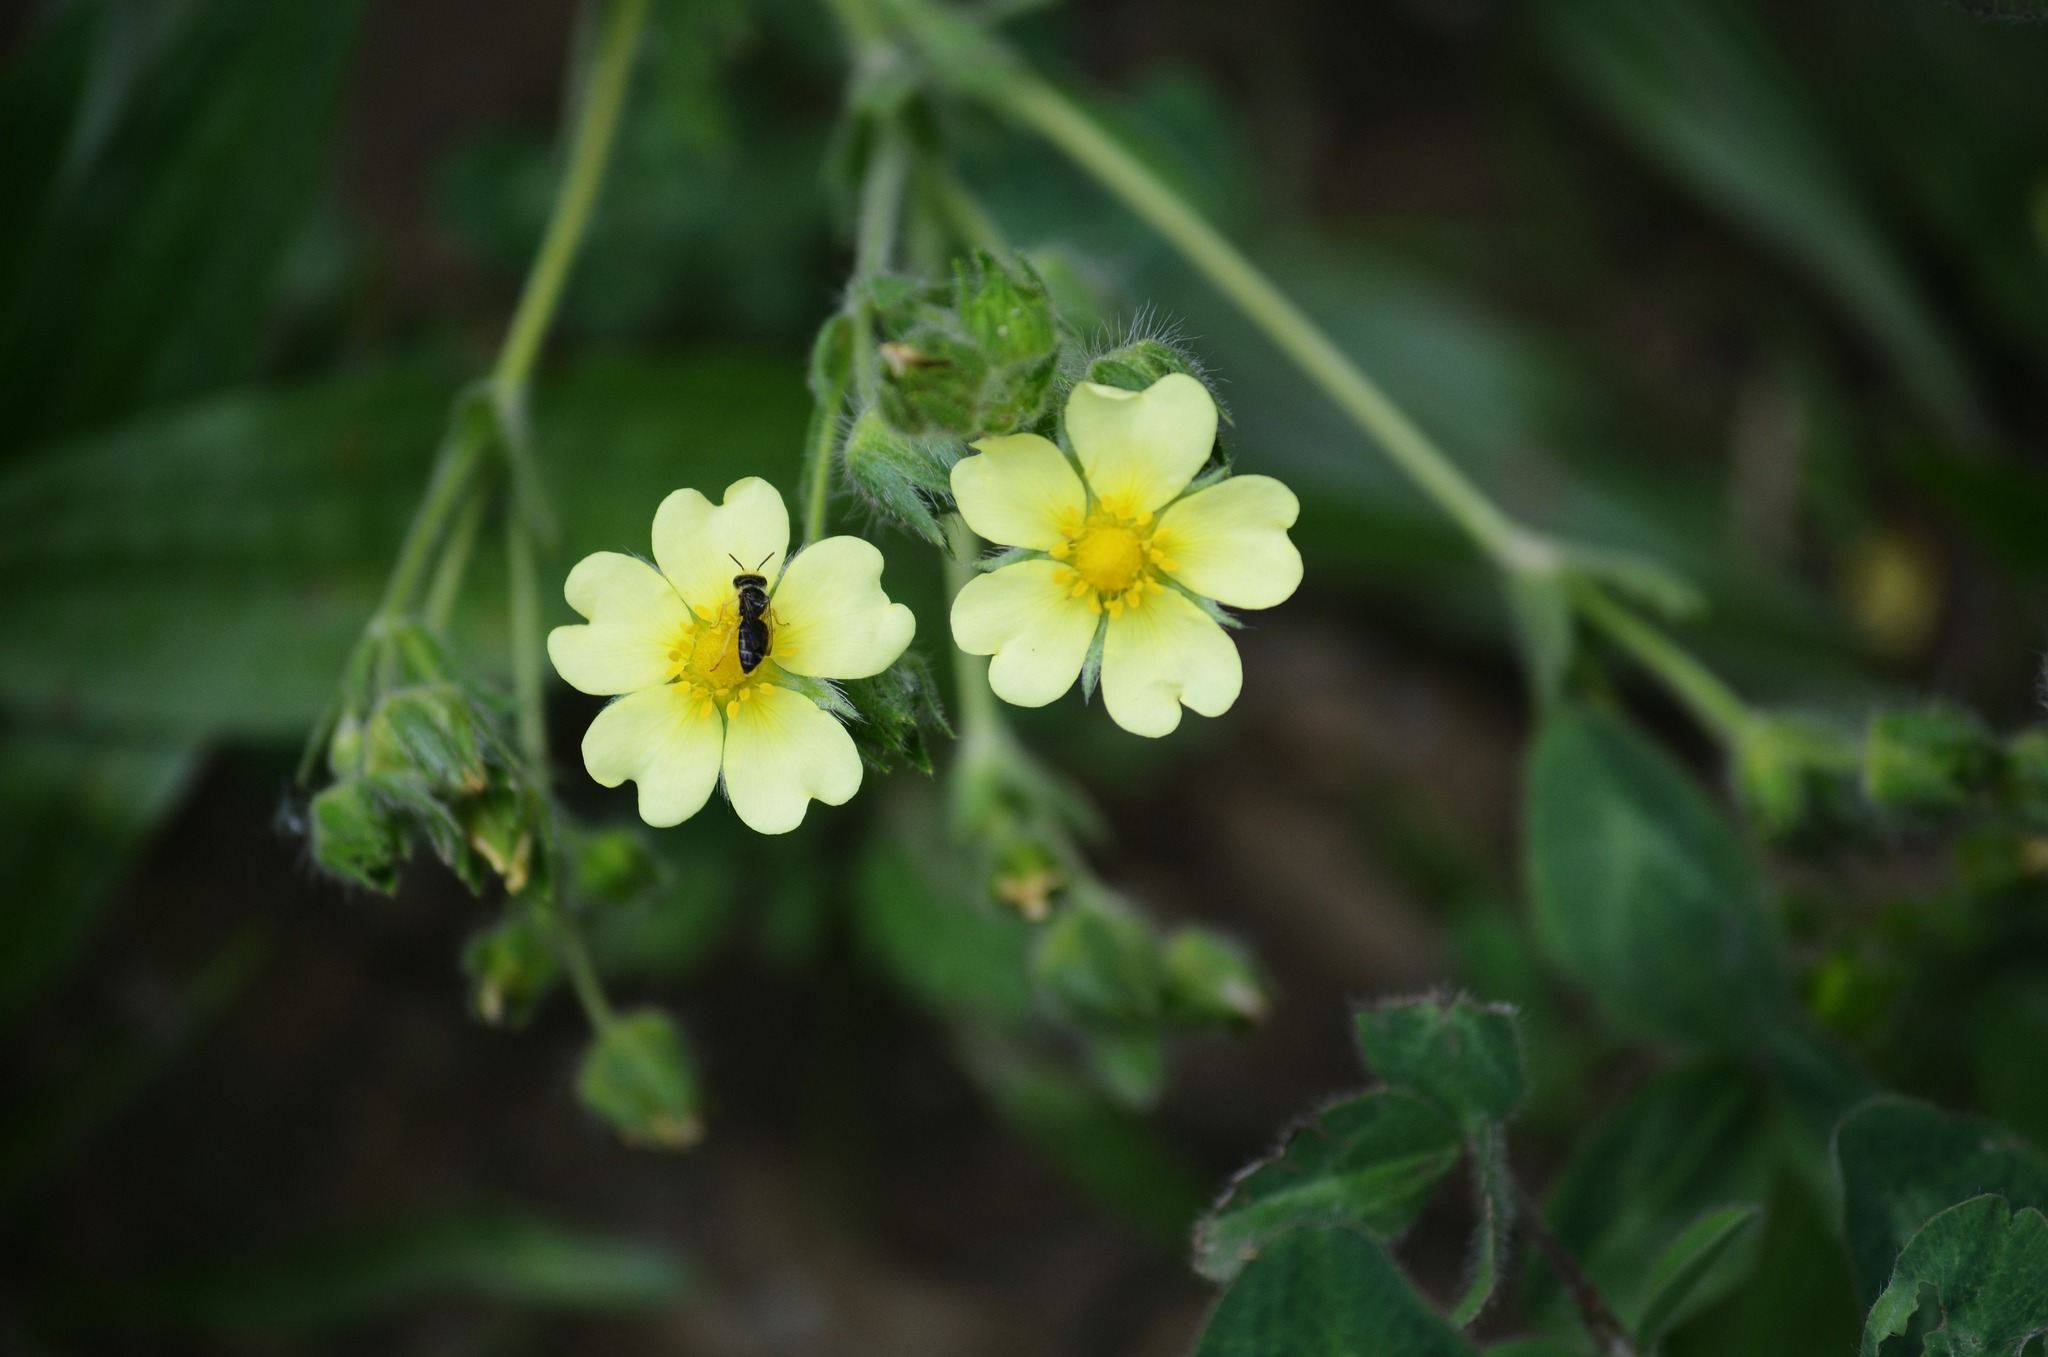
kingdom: Plantae
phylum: Tracheophyta
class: Magnoliopsida
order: Rosales
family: Rosaceae
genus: Potentilla
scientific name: Potentilla recta
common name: Sulphur cinquefoil
